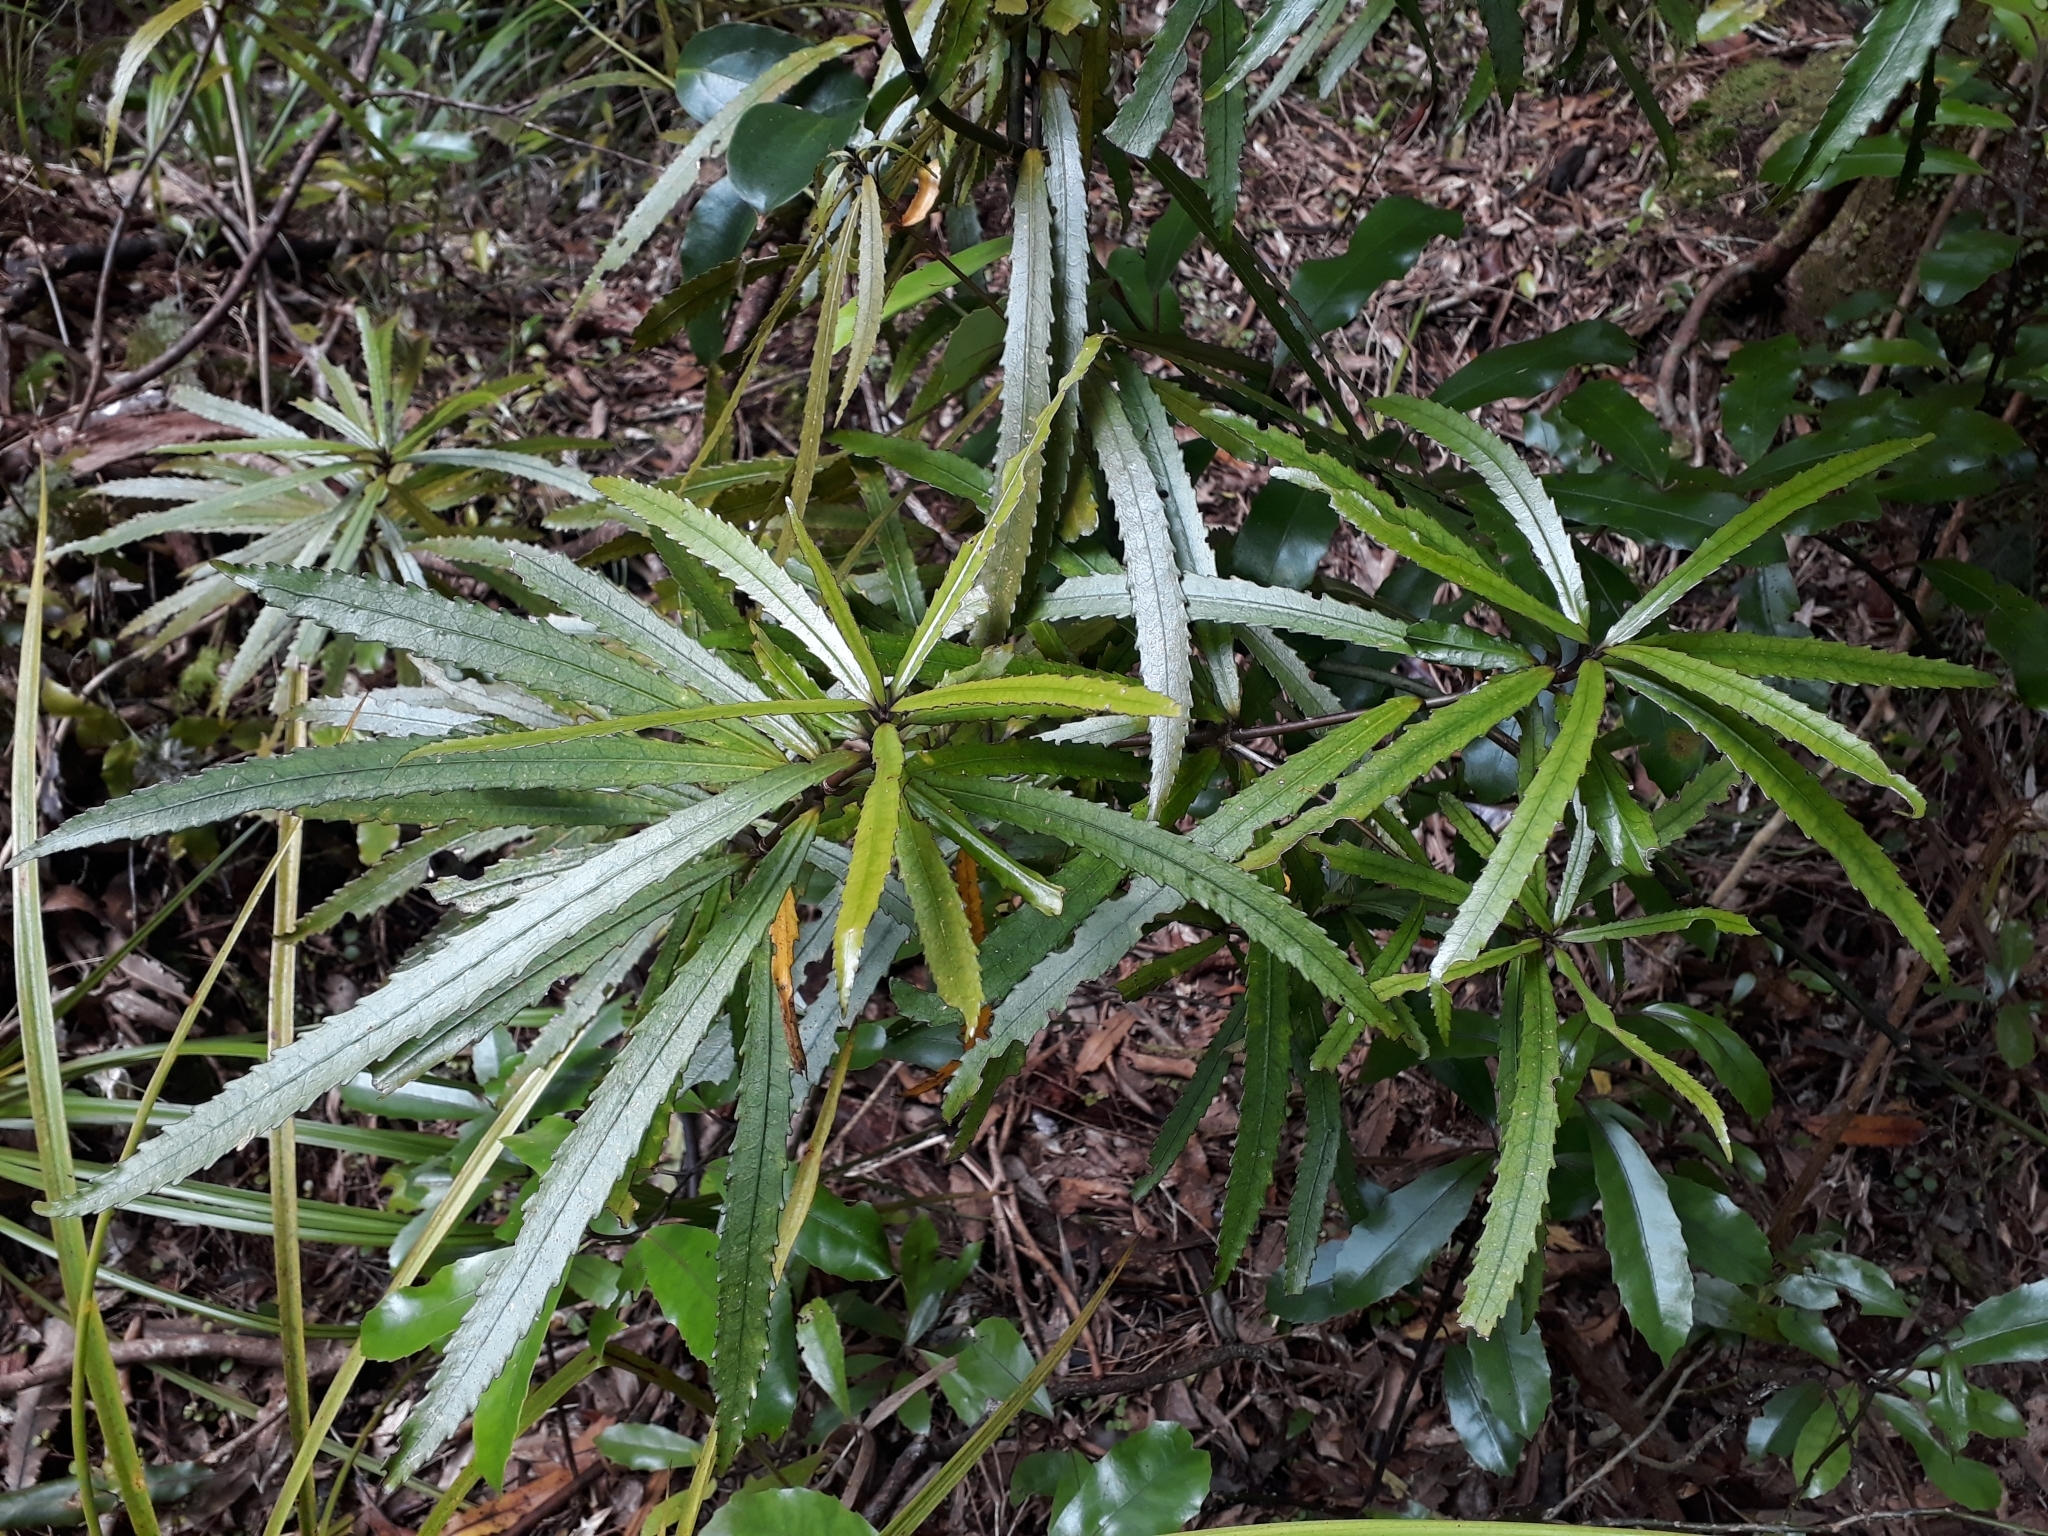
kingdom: Plantae
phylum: Tracheophyta
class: Magnoliopsida
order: Crossosomatales
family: Ixerbaceae
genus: Ixerba
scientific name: Ixerba brexioides
